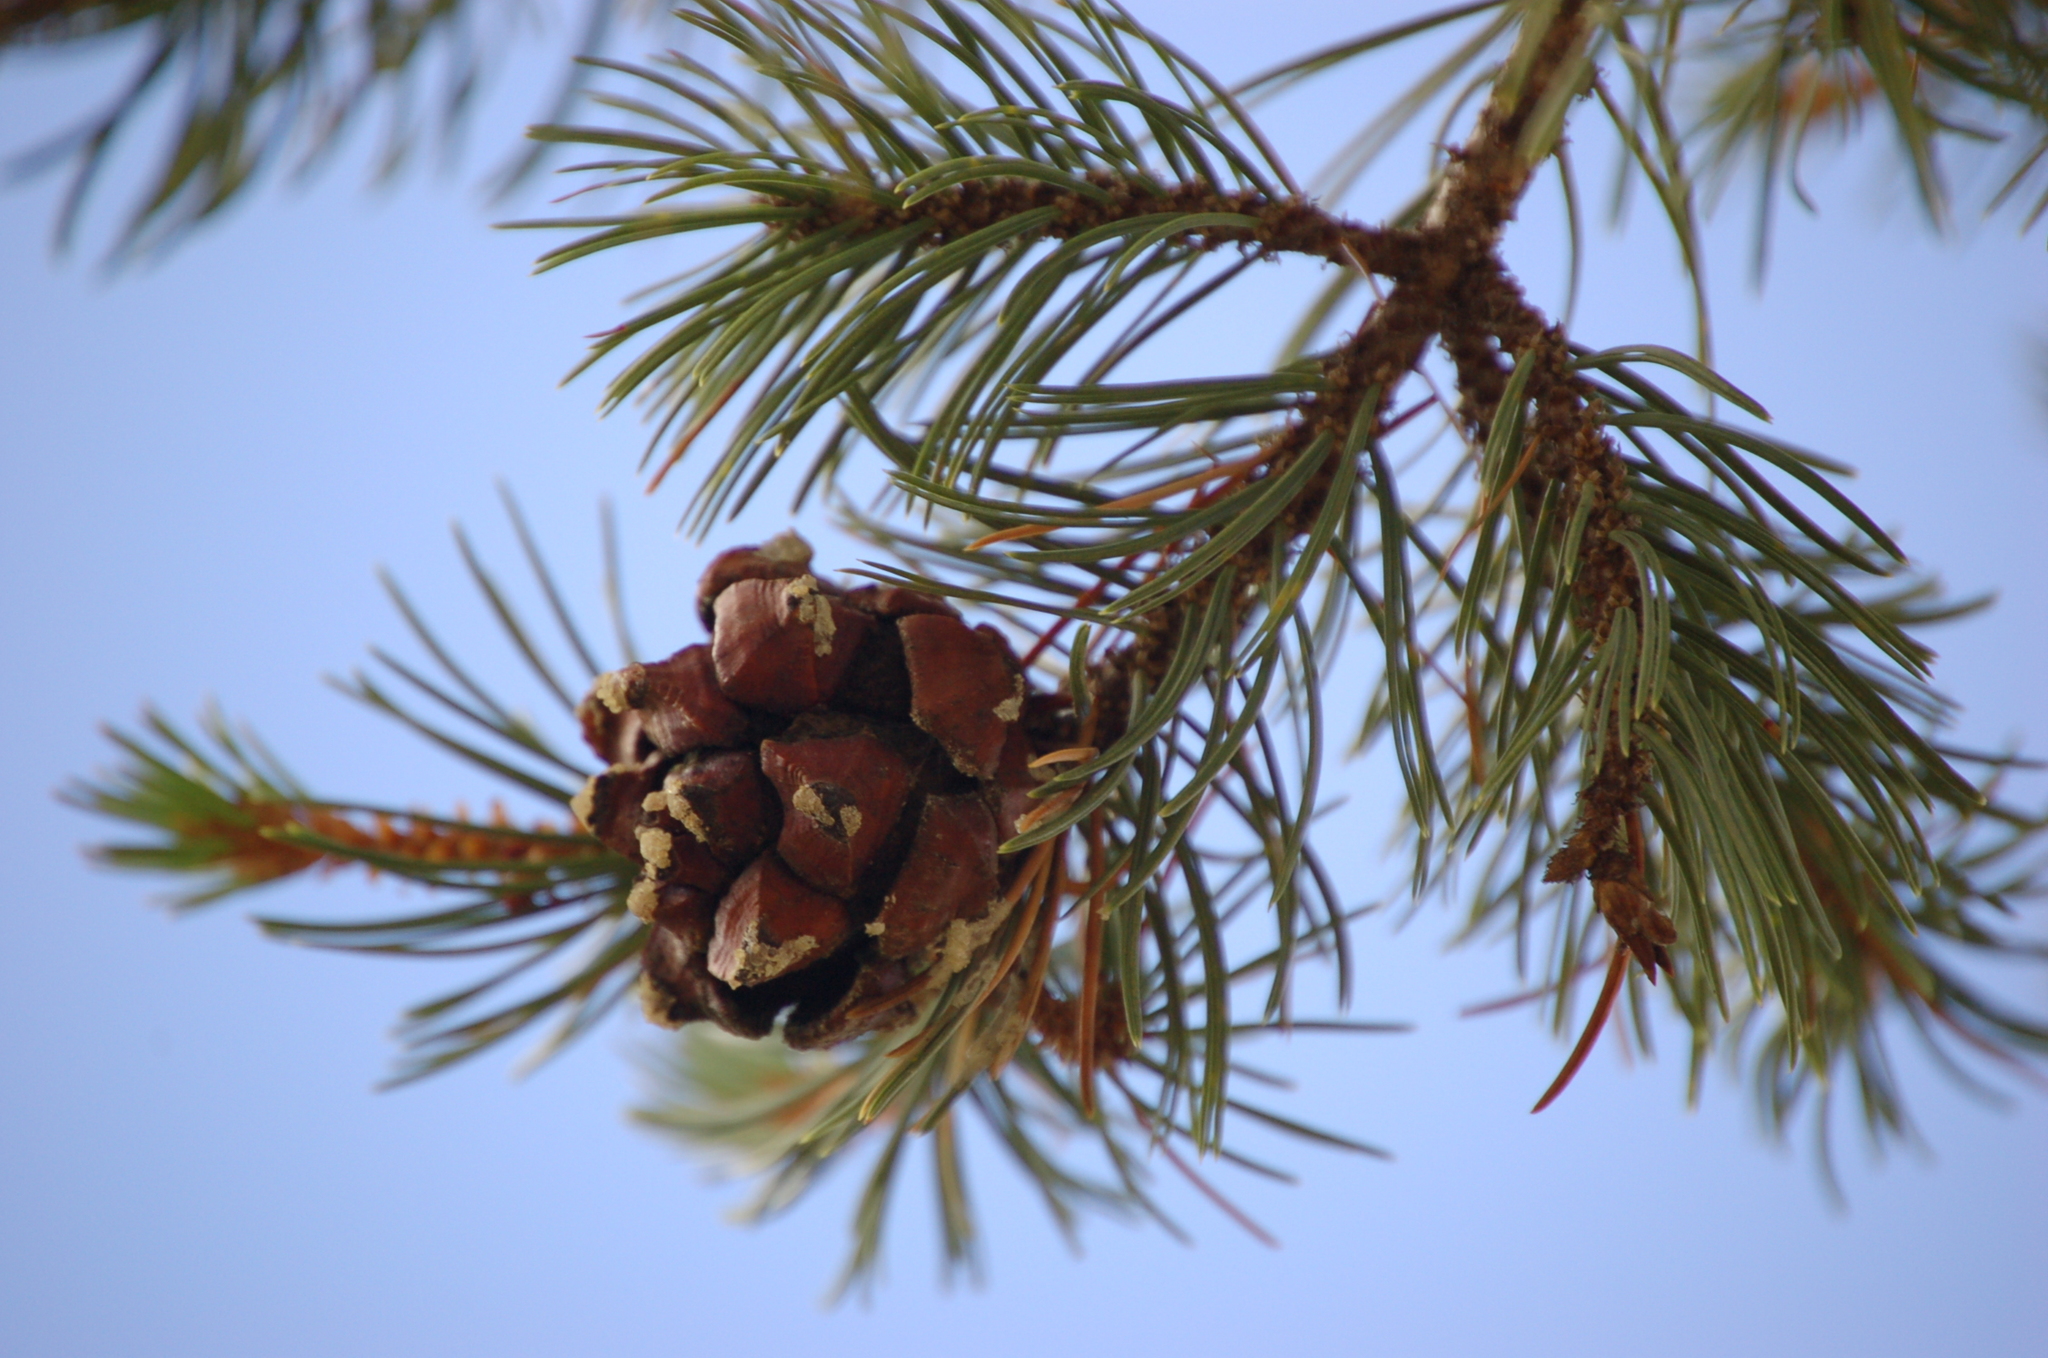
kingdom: Plantae
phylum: Tracheophyta
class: Pinopsida
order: Pinales
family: Pinaceae
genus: Pinus
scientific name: Pinus cembroides
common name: Mexican nut pine
